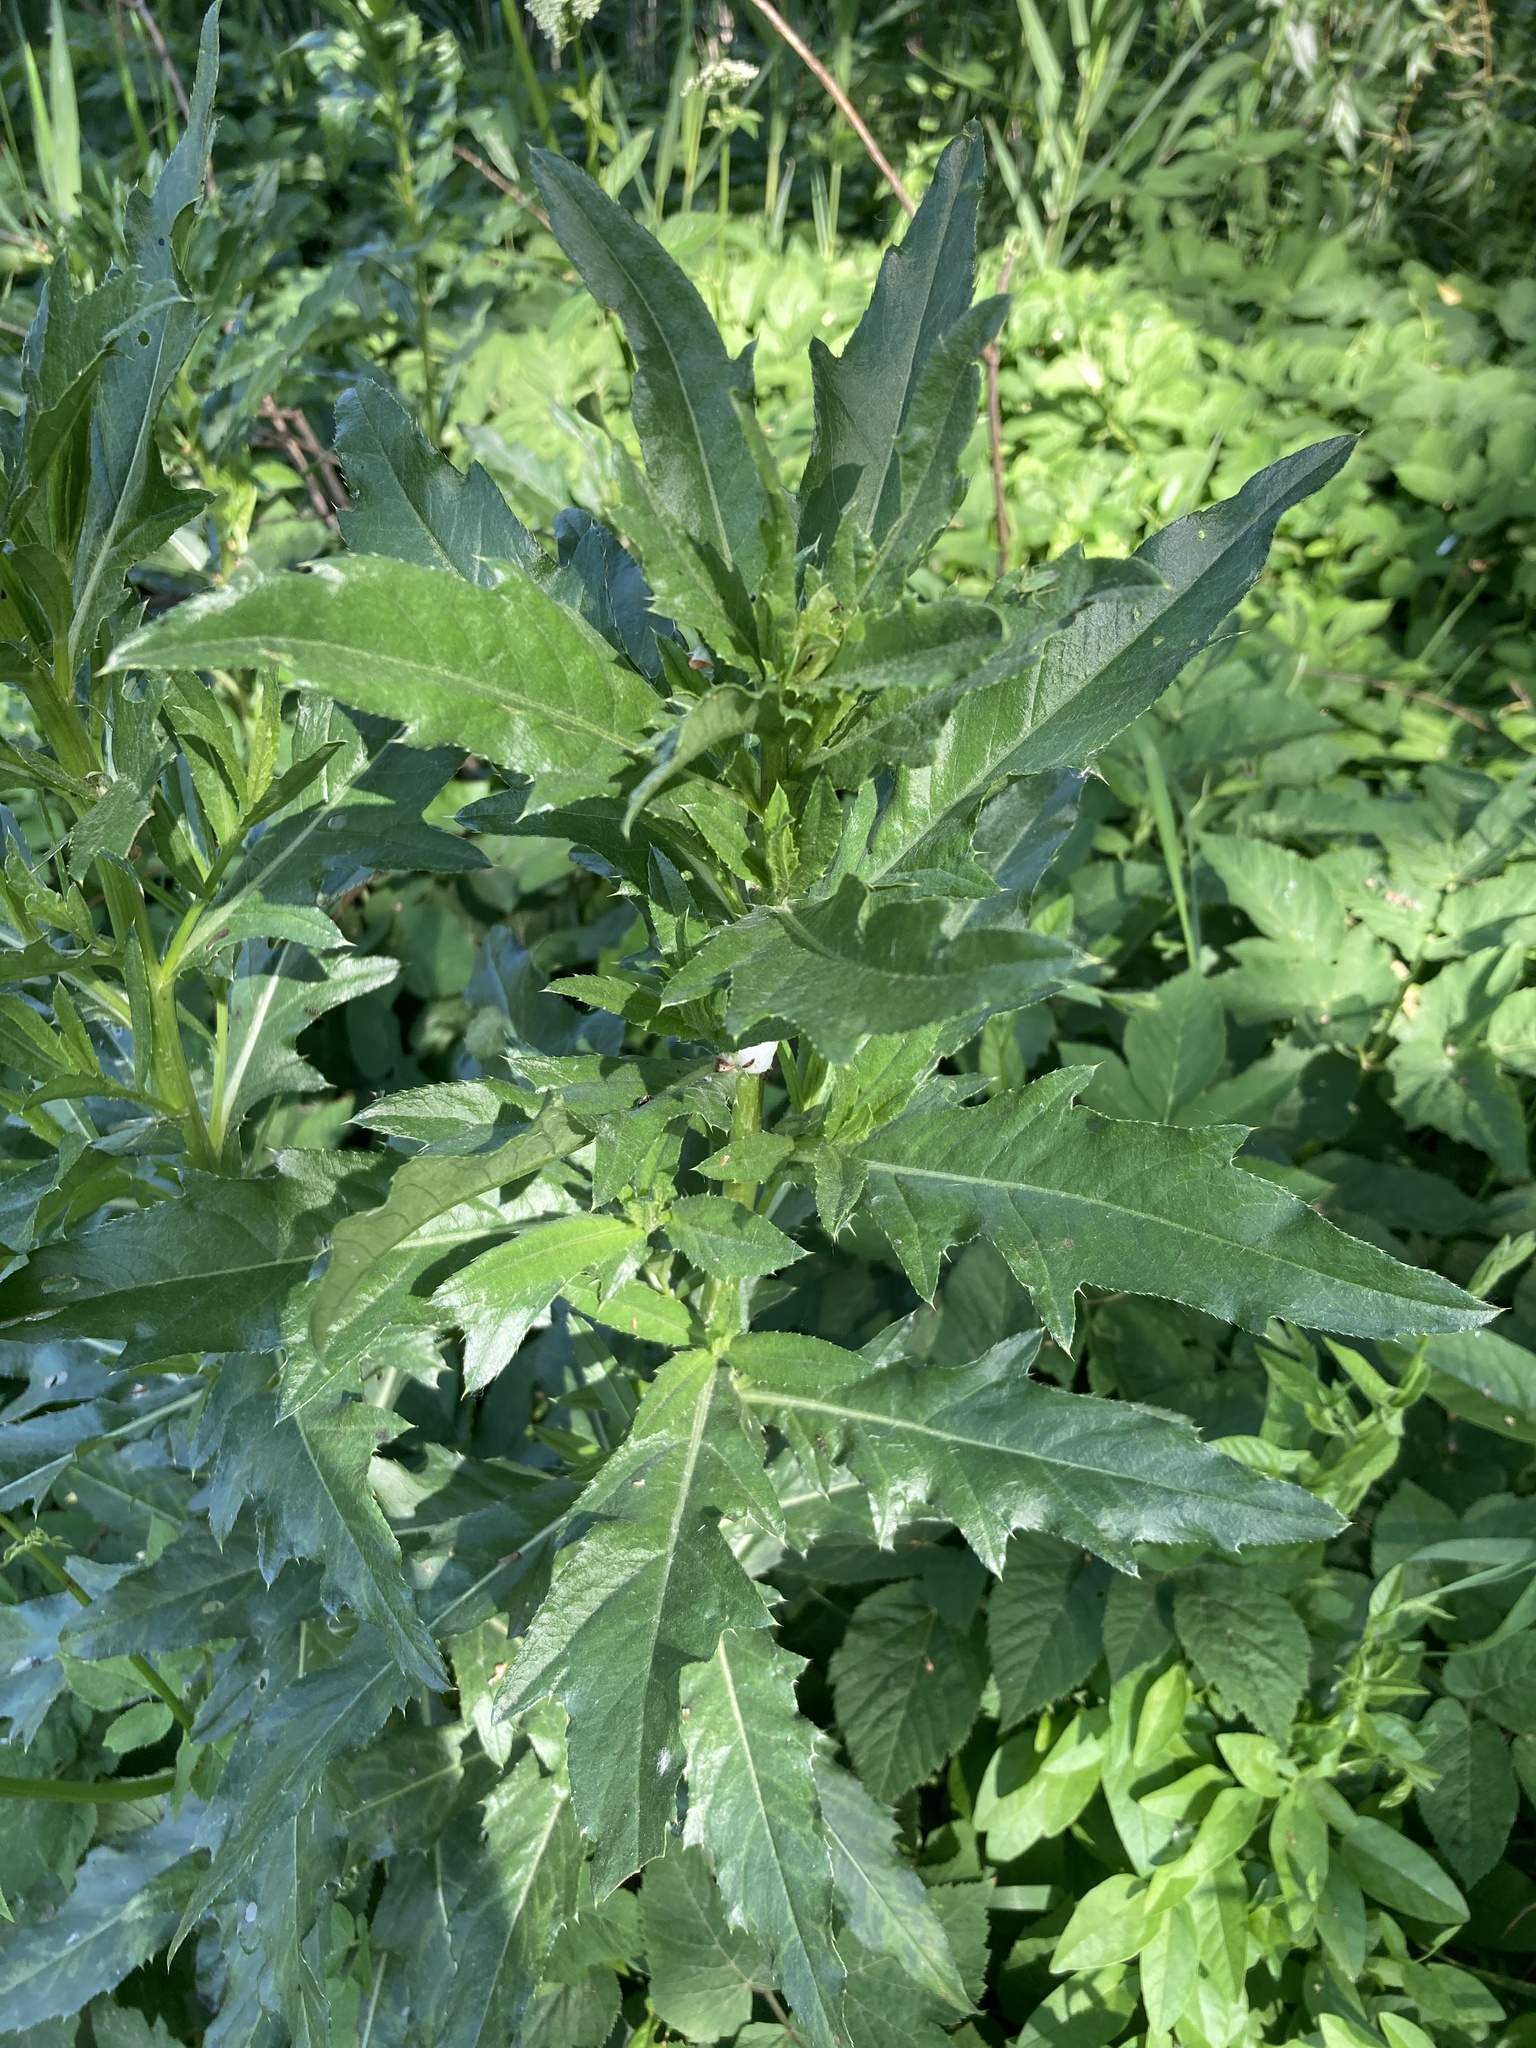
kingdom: Plantae
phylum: Tracheophyta
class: Magnoliopsida
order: Asterales
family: Asteraceae
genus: Cirsium
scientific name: Cirsium arvense
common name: Creeping thistle
